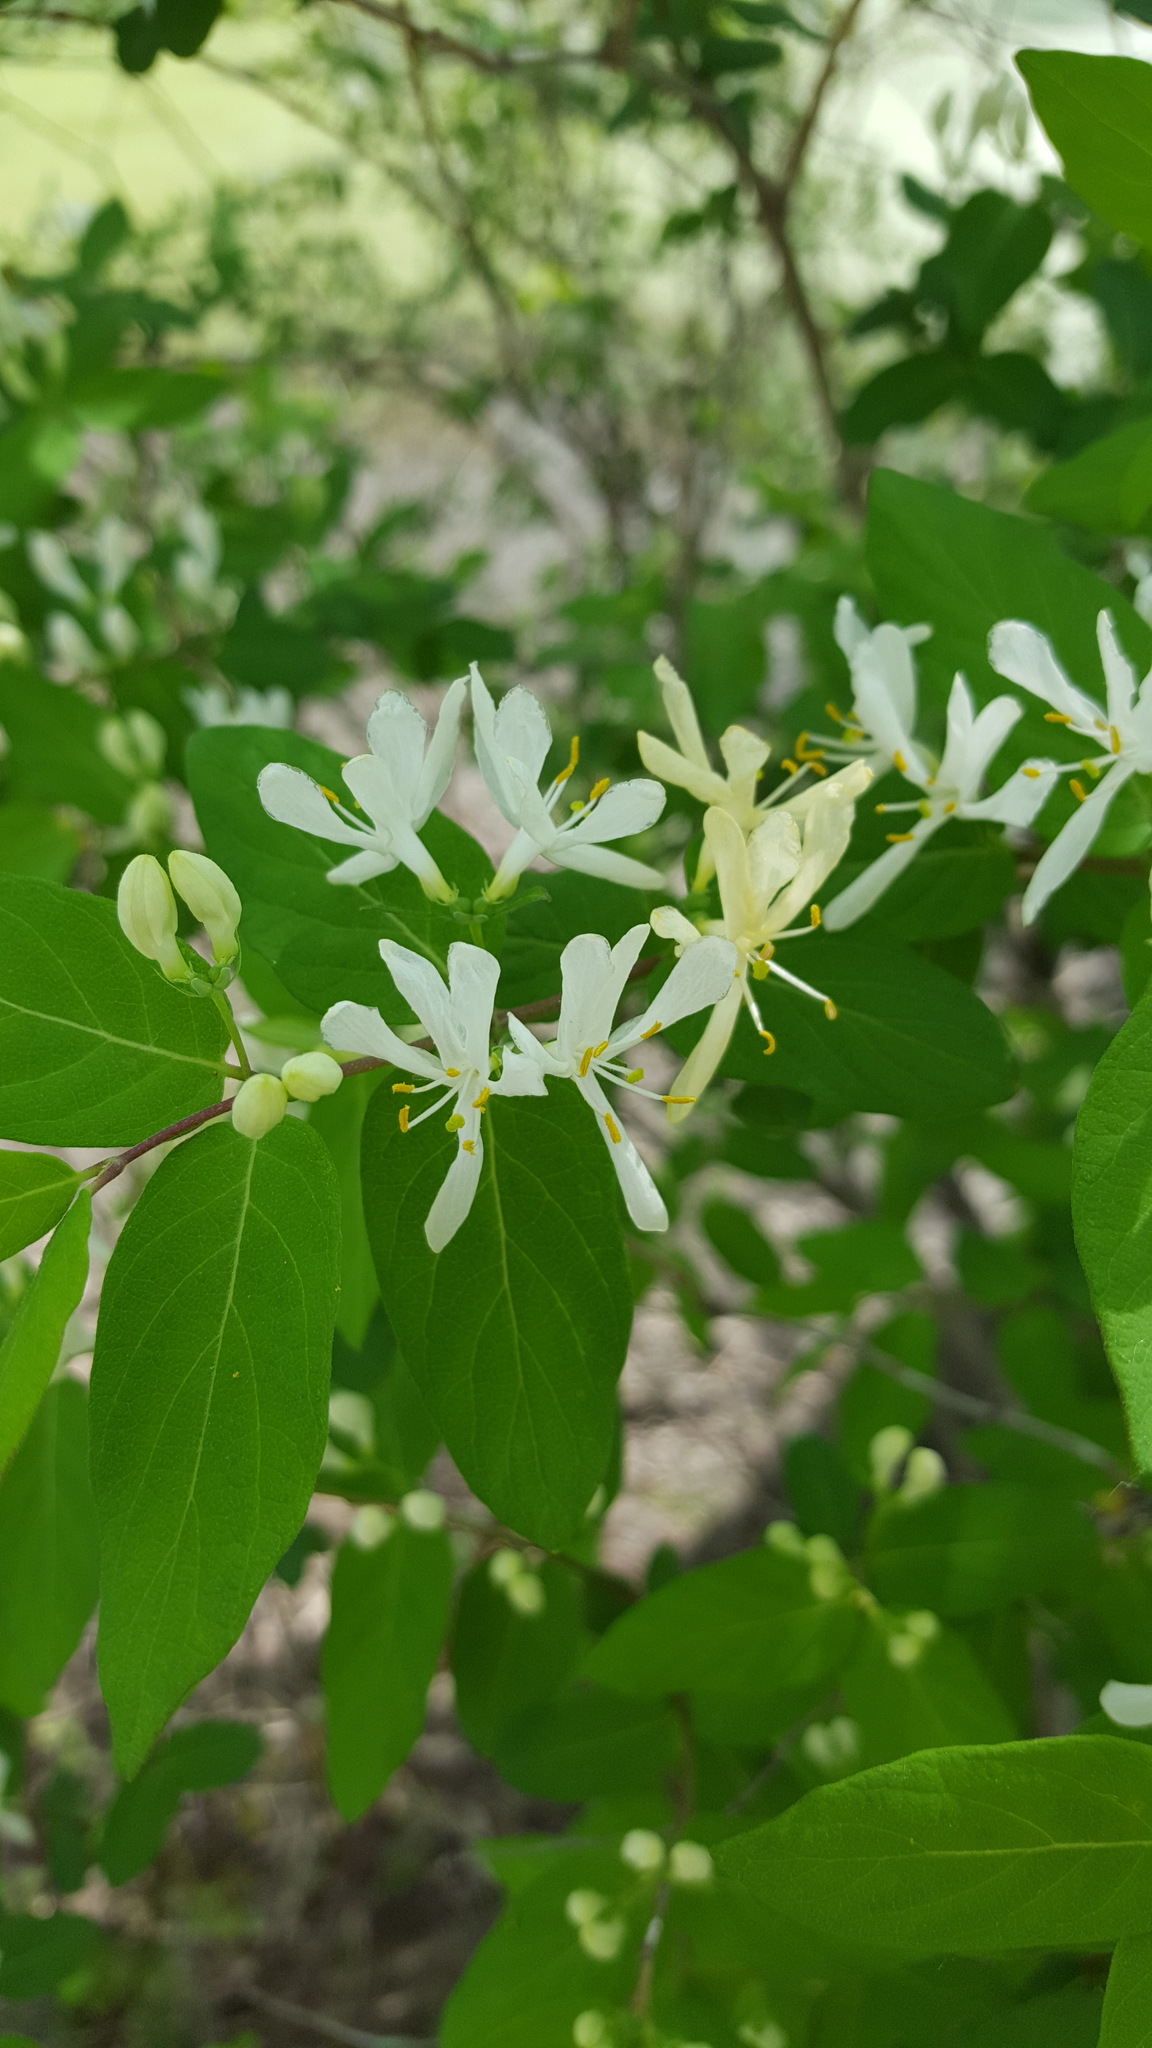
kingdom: Plantae
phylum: Tracheophyta
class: Magnoliopsida
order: Dipsacales
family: Caprifoliaceae
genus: Lonicera
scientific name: Lonicera morrowii
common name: Morrow's honeysuckle
